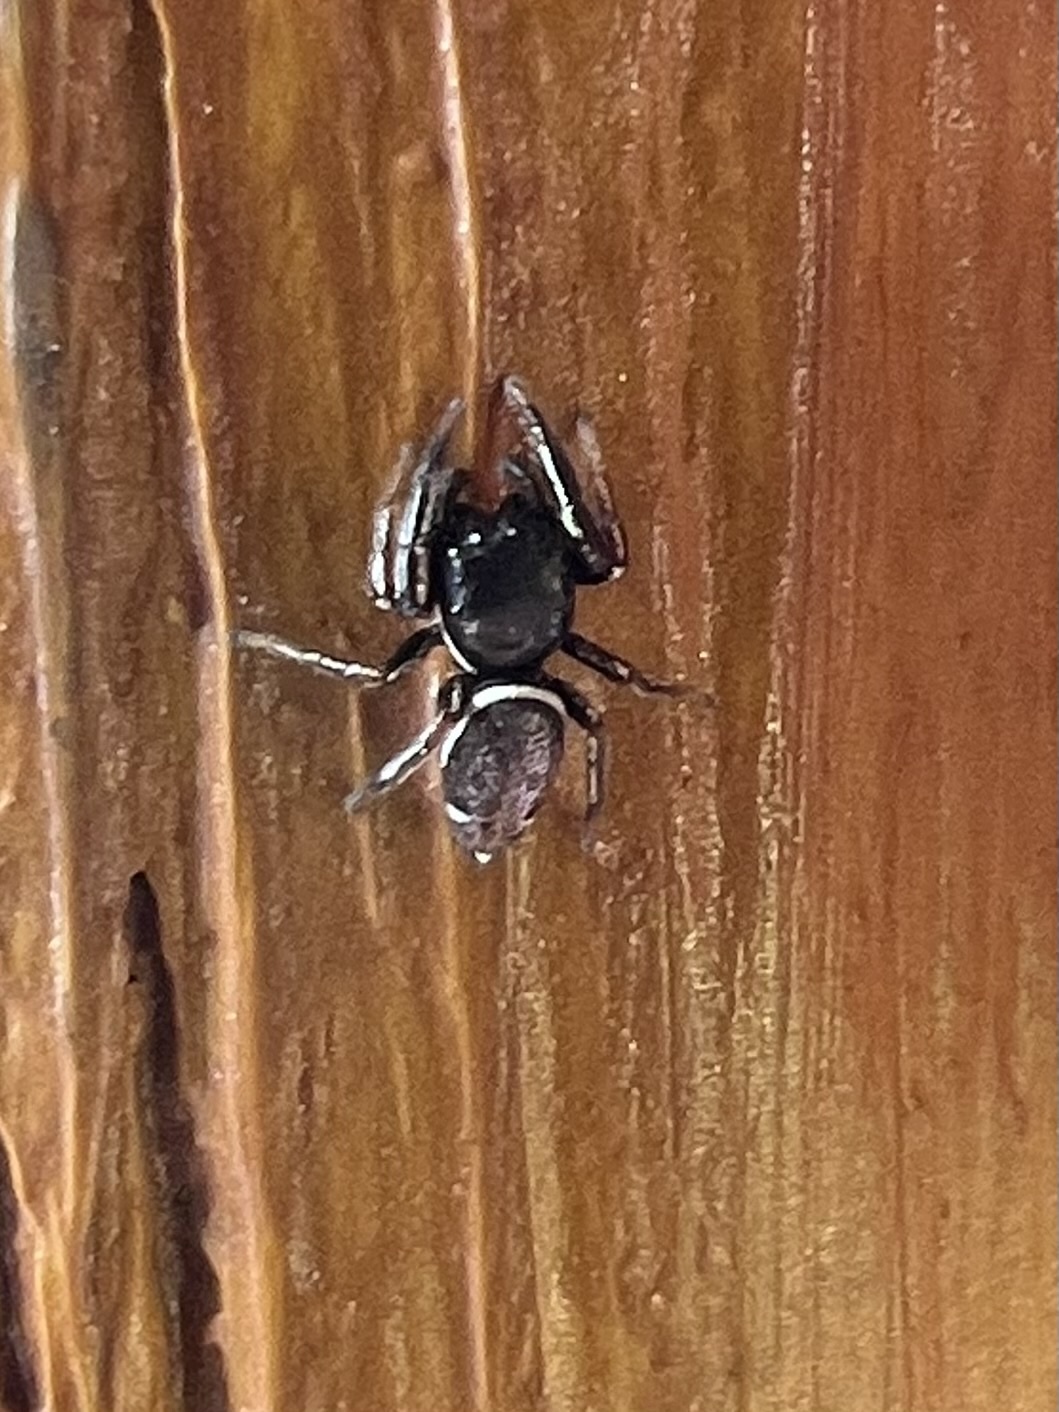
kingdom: Animalia
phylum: Arthropoda
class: Arachnida
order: Araneae
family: Salticidae
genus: Sassacus
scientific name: Sassacus vitis
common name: Jumping spiders
